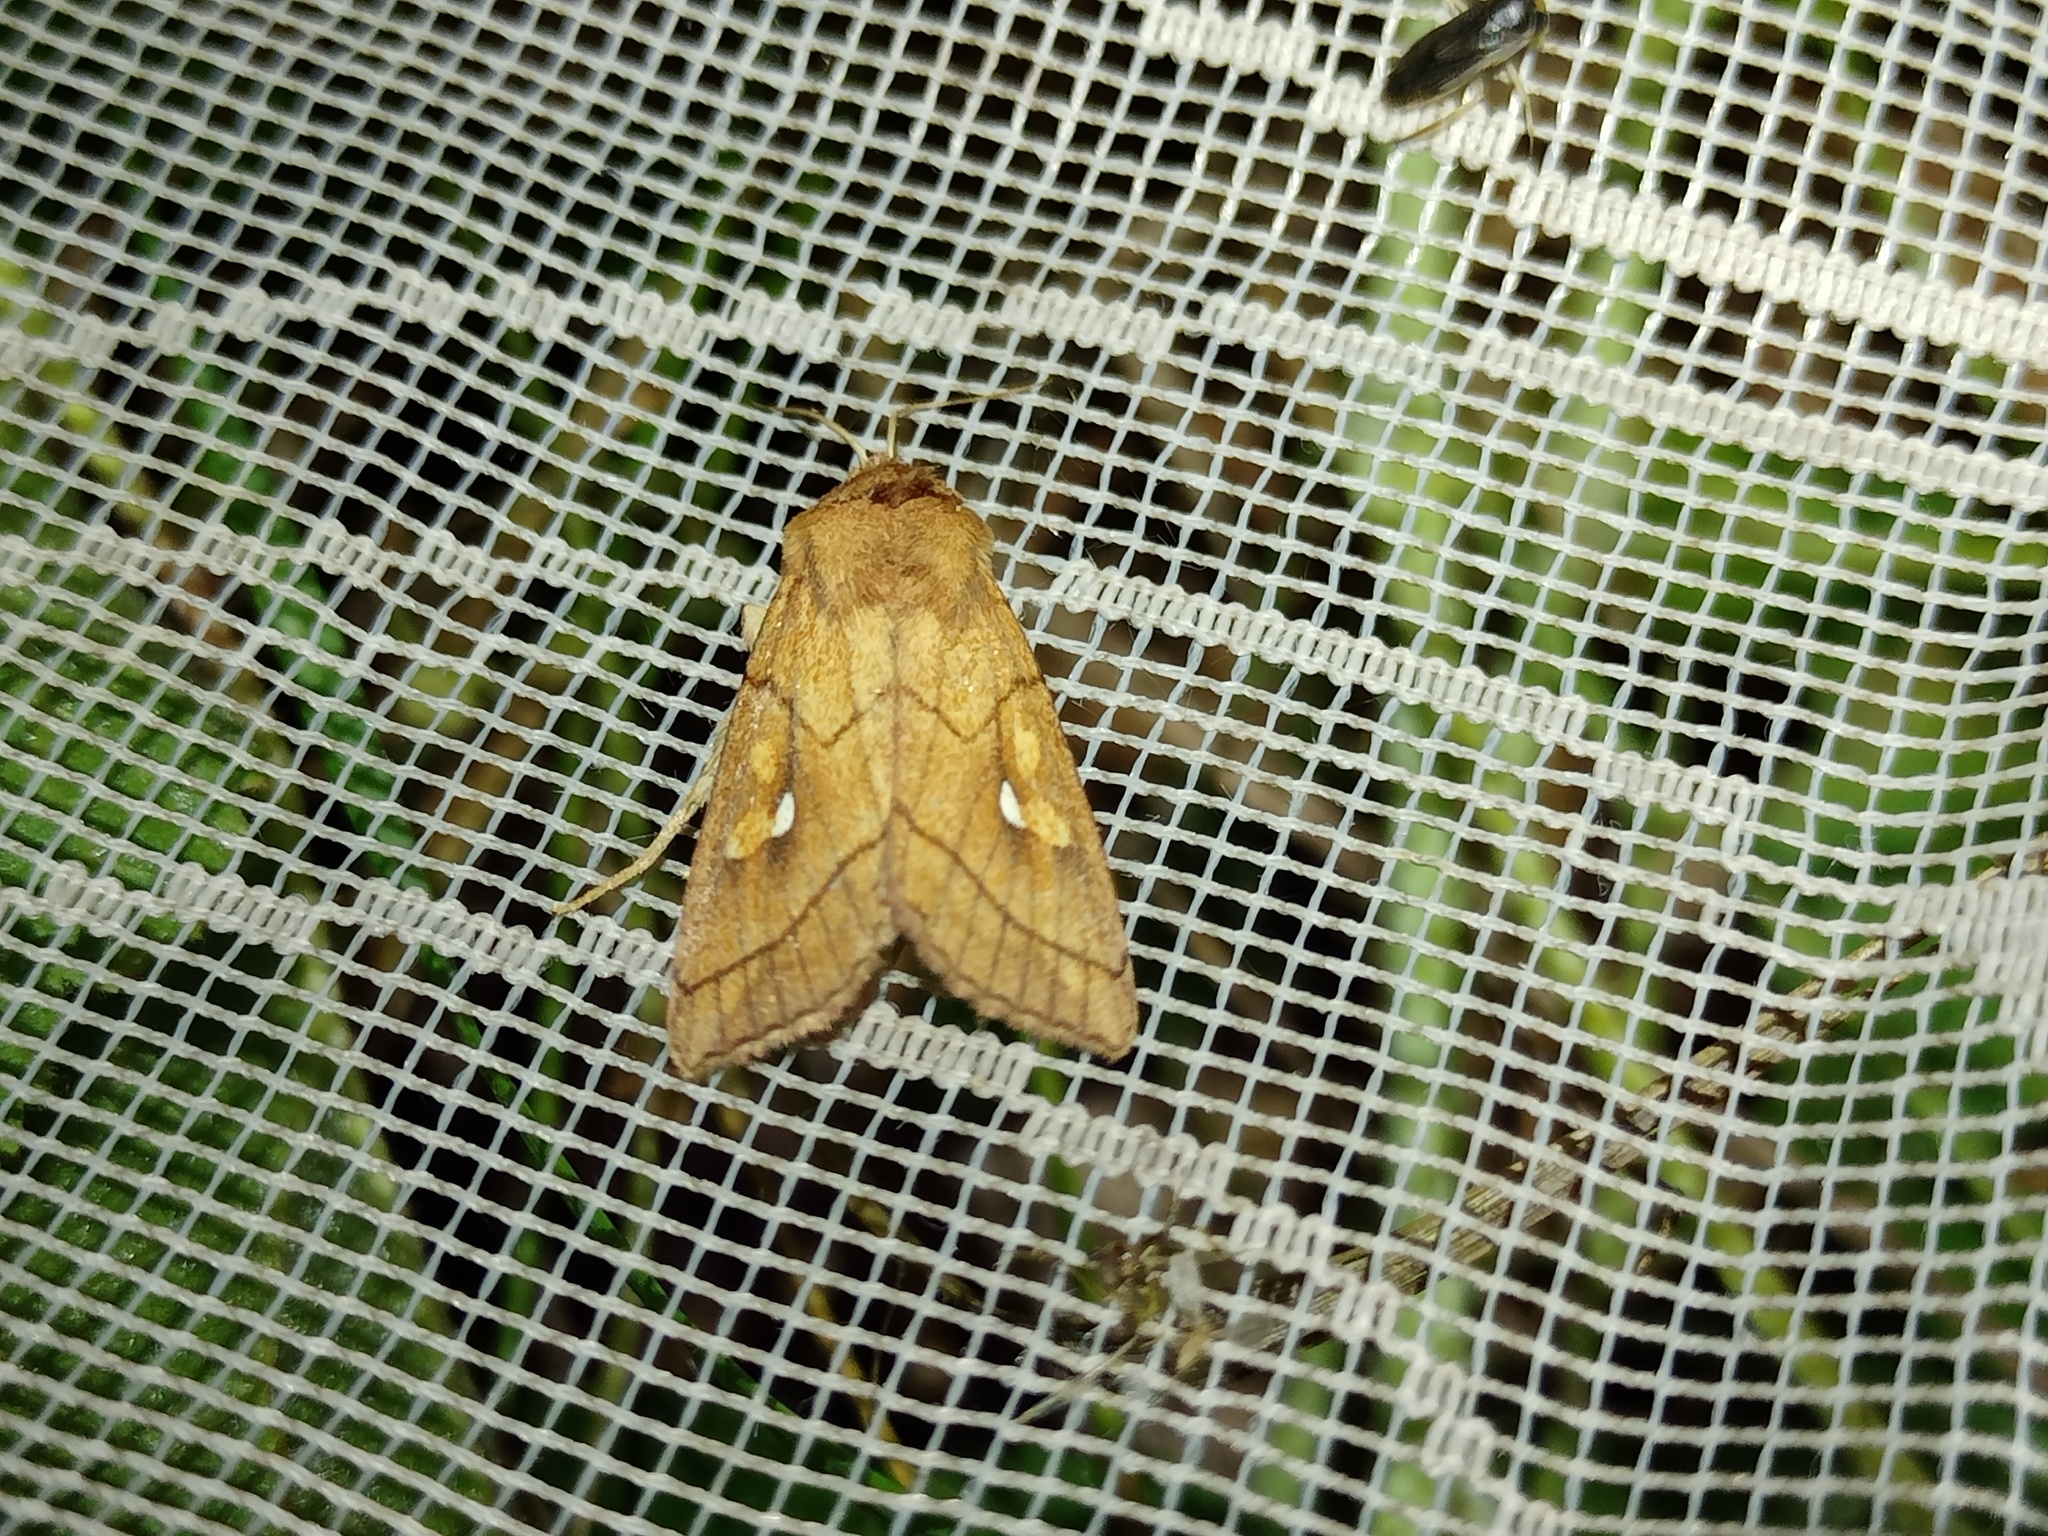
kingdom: Animalia
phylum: Arthropoda
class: Insecta
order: Lepidoptera
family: Noctuidae
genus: Mythimna
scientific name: Mythimna conigera
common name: Brown-line bright-eye
